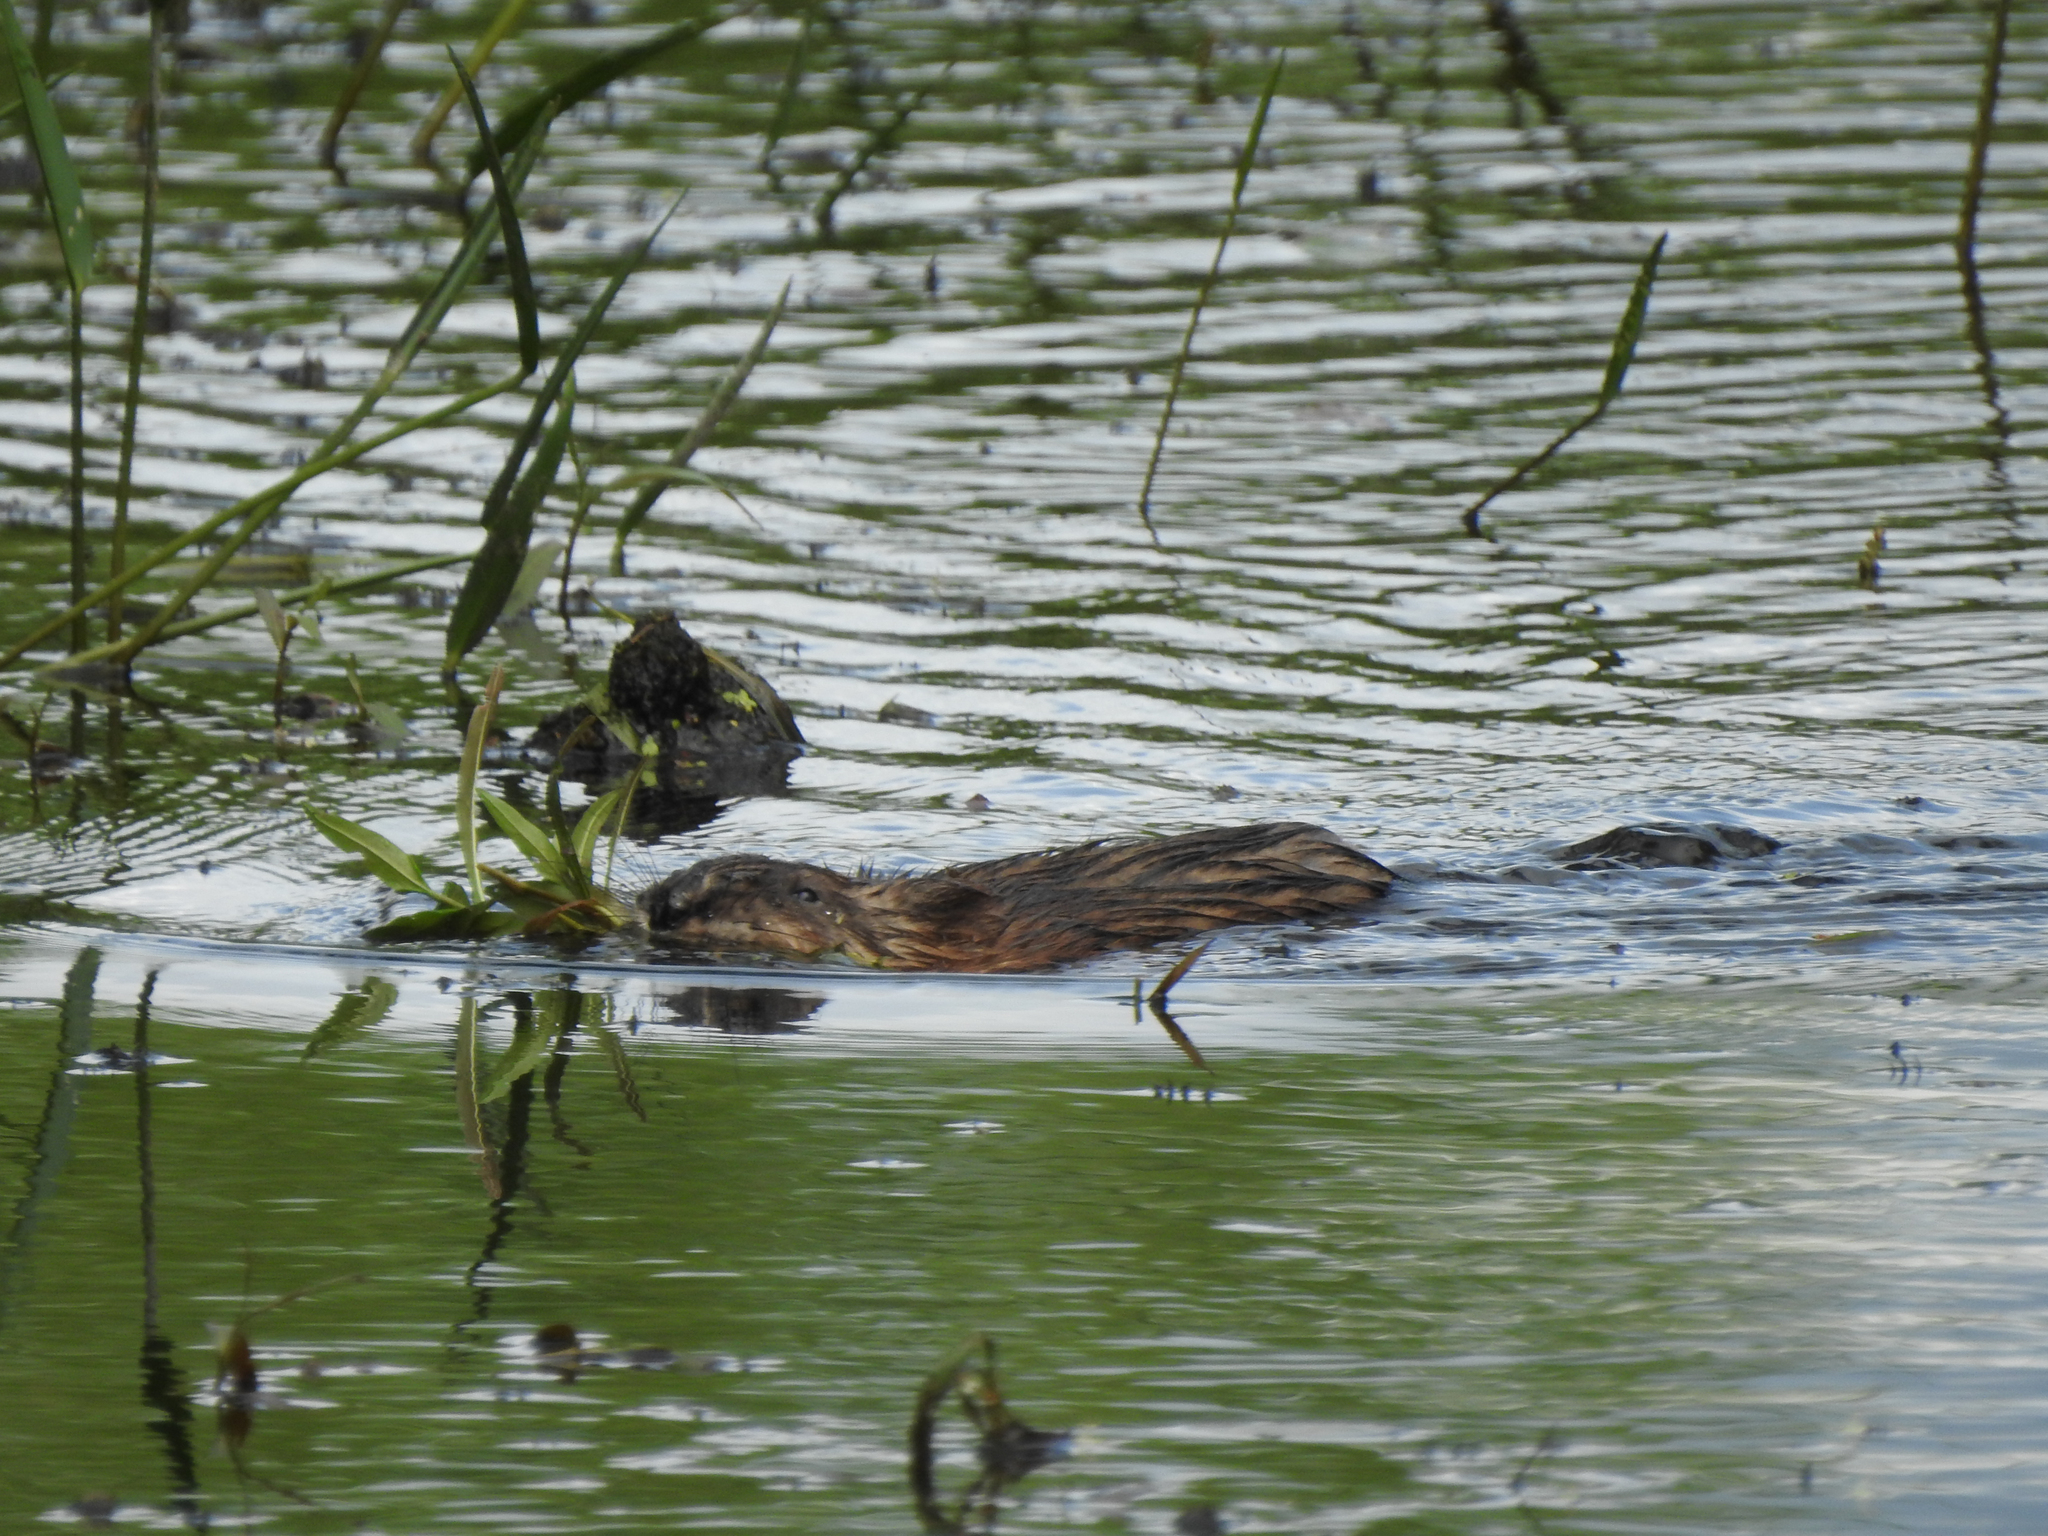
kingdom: Animalia
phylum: Chordata
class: Mammalia
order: Rodentia
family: Cricetidae
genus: Ondatra
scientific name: Ondatra zibethicus
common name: Muskrat
